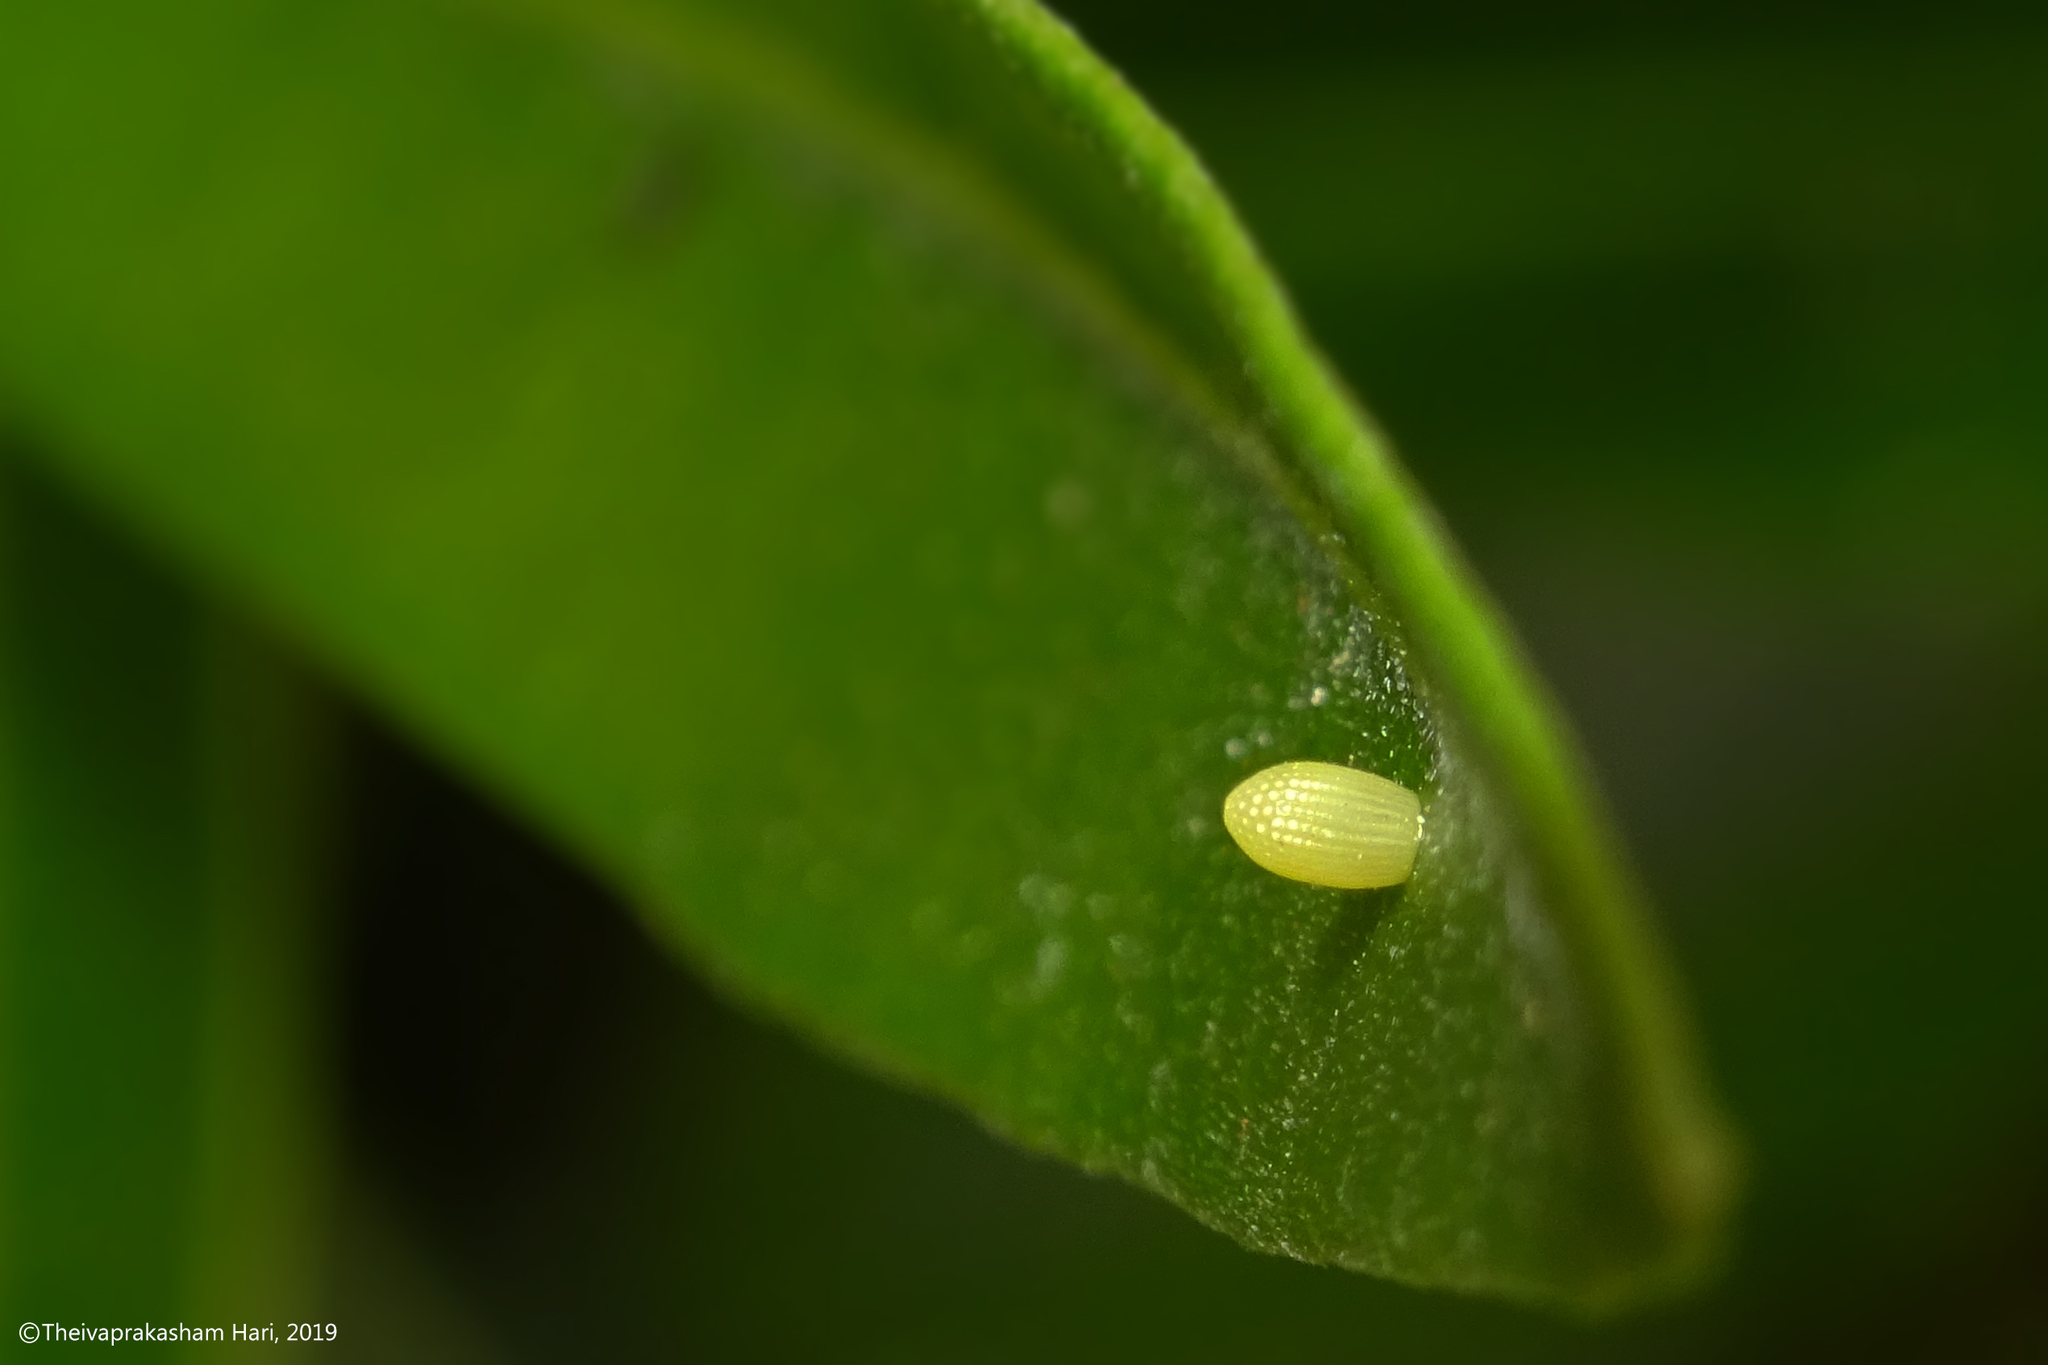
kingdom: Animalia
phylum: Arthropoda
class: Insecta
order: Lepidoptera
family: Nymphalidae
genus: Euploea
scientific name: Euploea core
